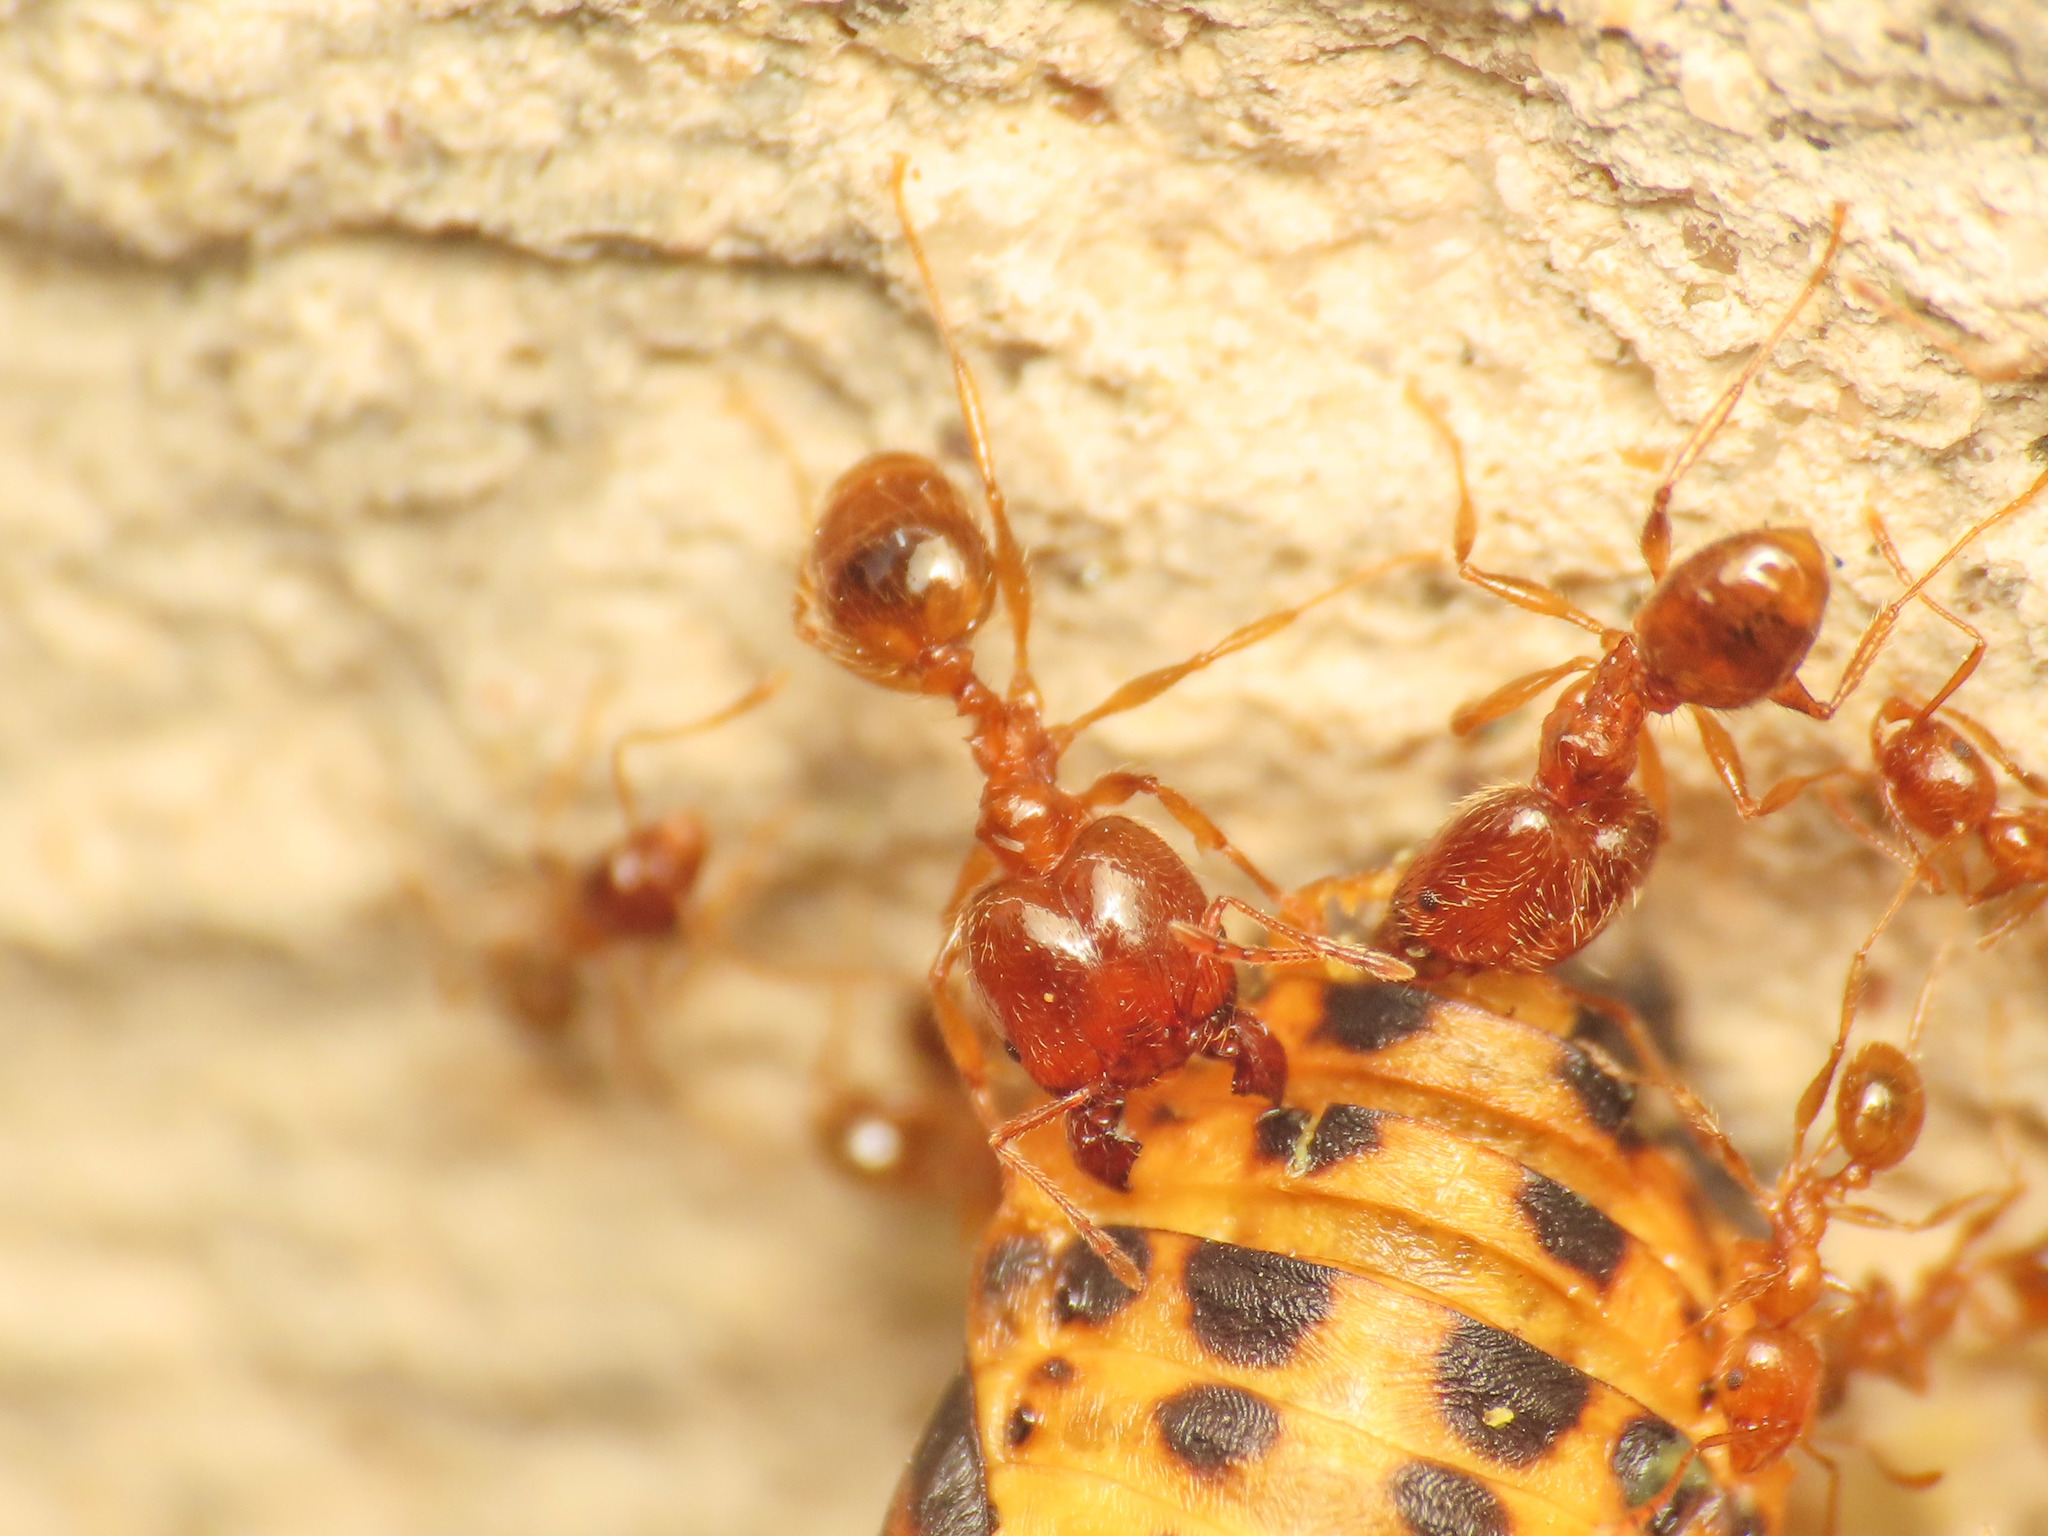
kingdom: Animalia
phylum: Arthropoda
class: Insecta
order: Hymenoptera
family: Formicidae
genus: Pheidole
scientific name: Pheidole pallidula
